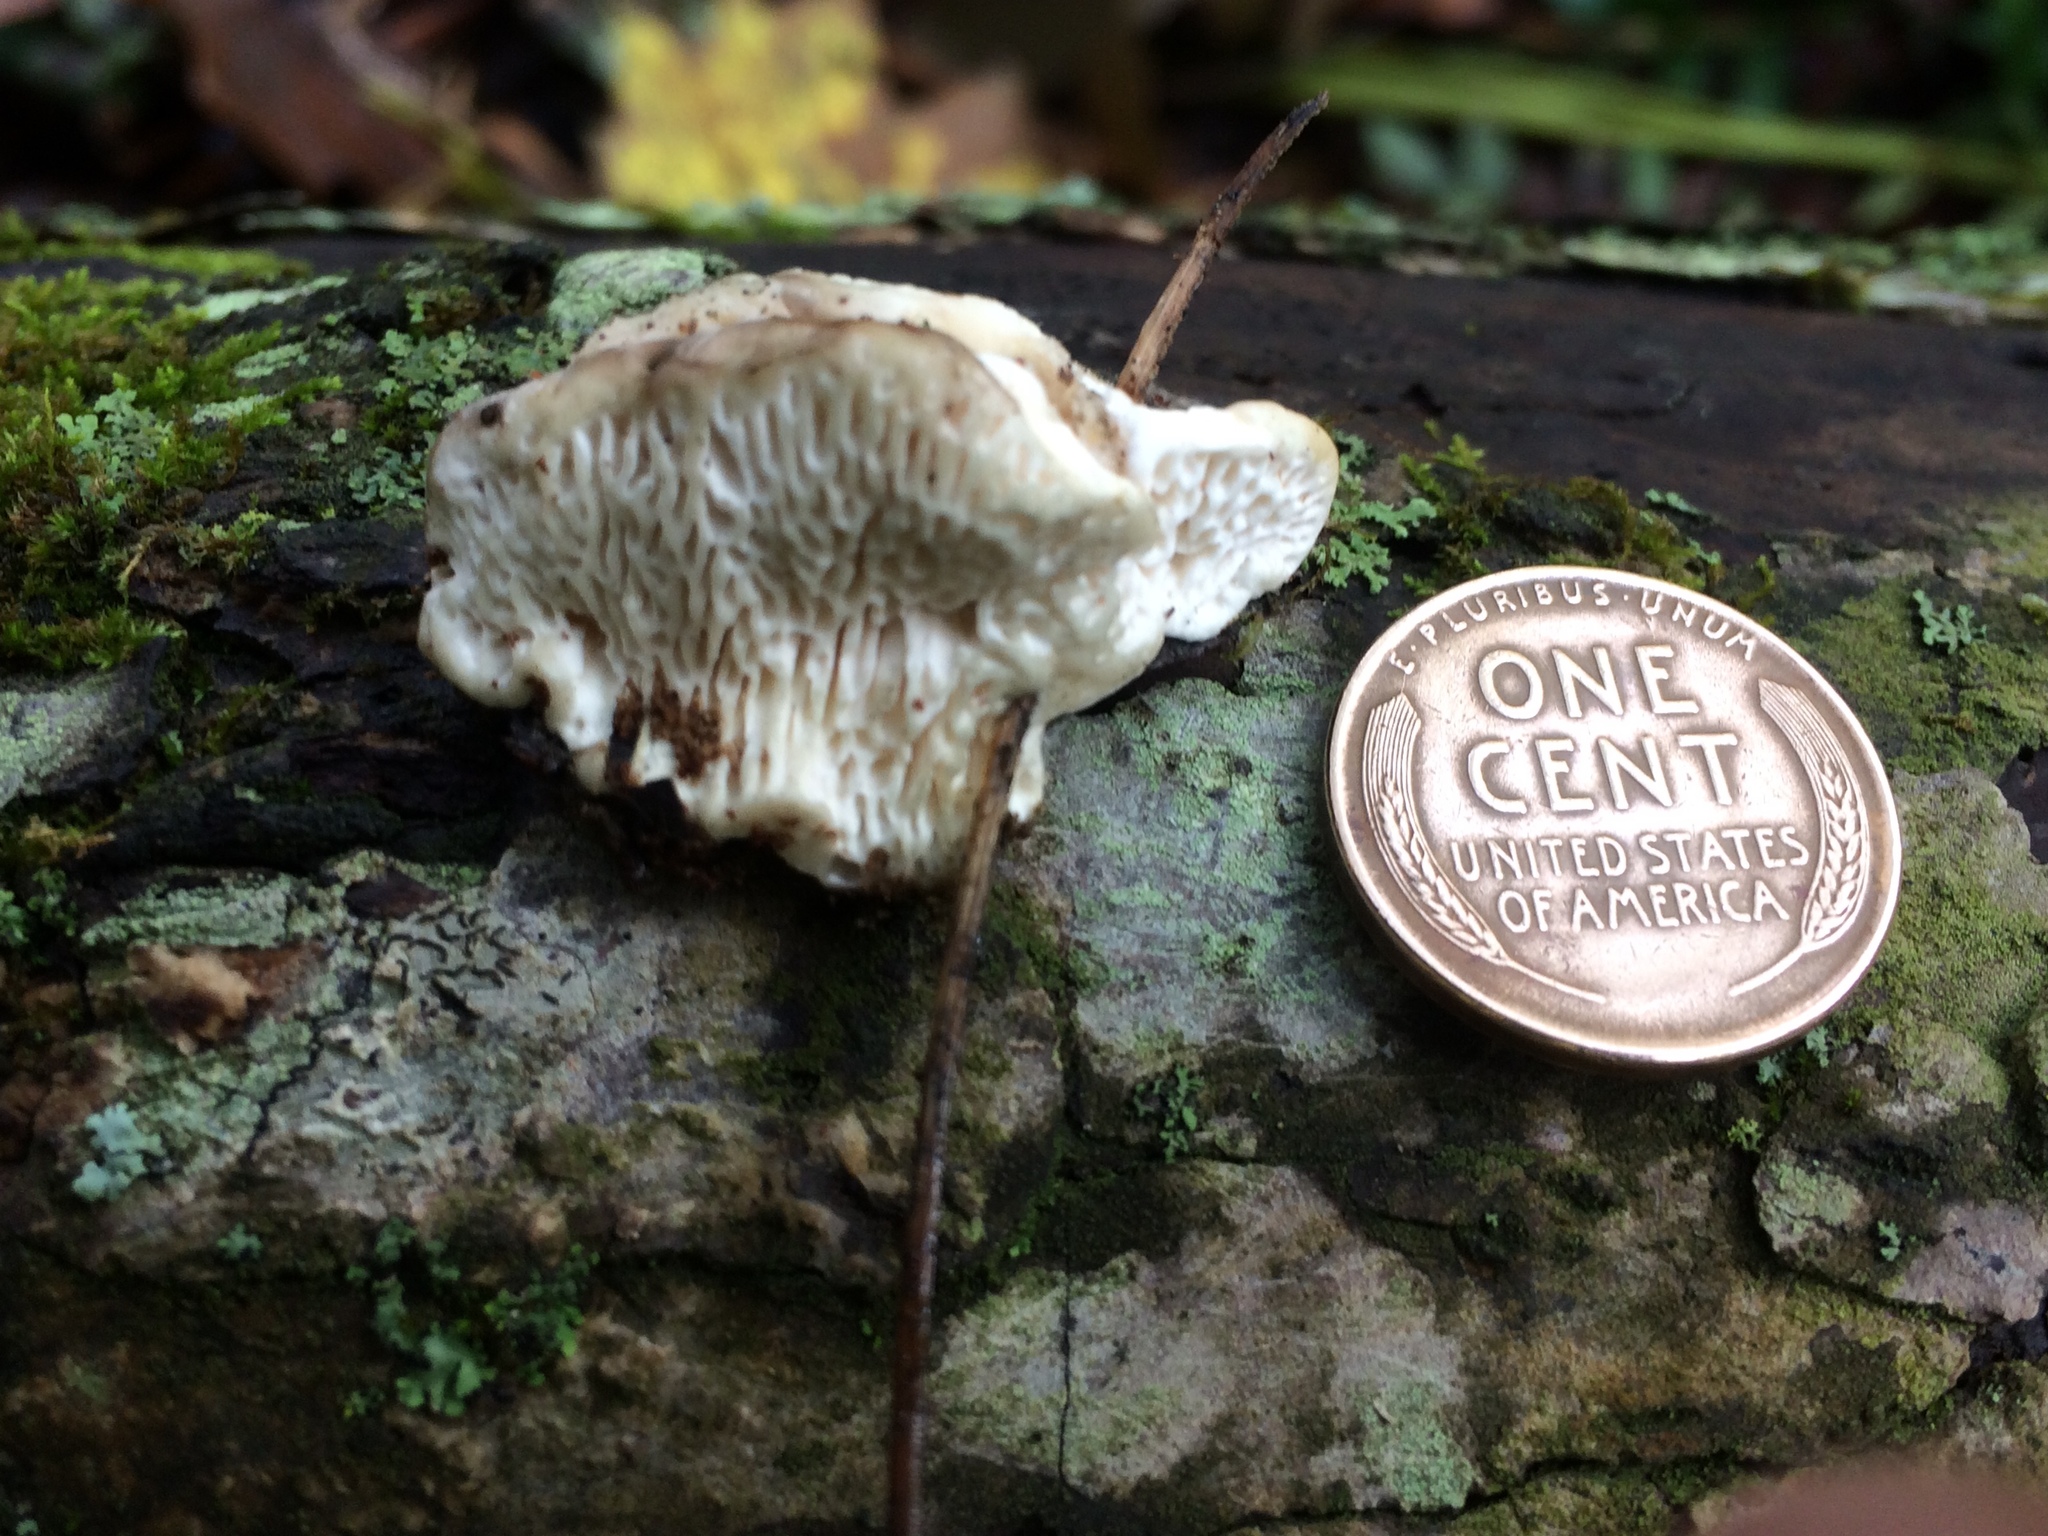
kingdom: Fungi
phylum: Basidiomycota
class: Agaricomycetes
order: Polyporales
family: Polyporaceae
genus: Trametes
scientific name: Trametes gibbosa
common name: Lumpy bracket
